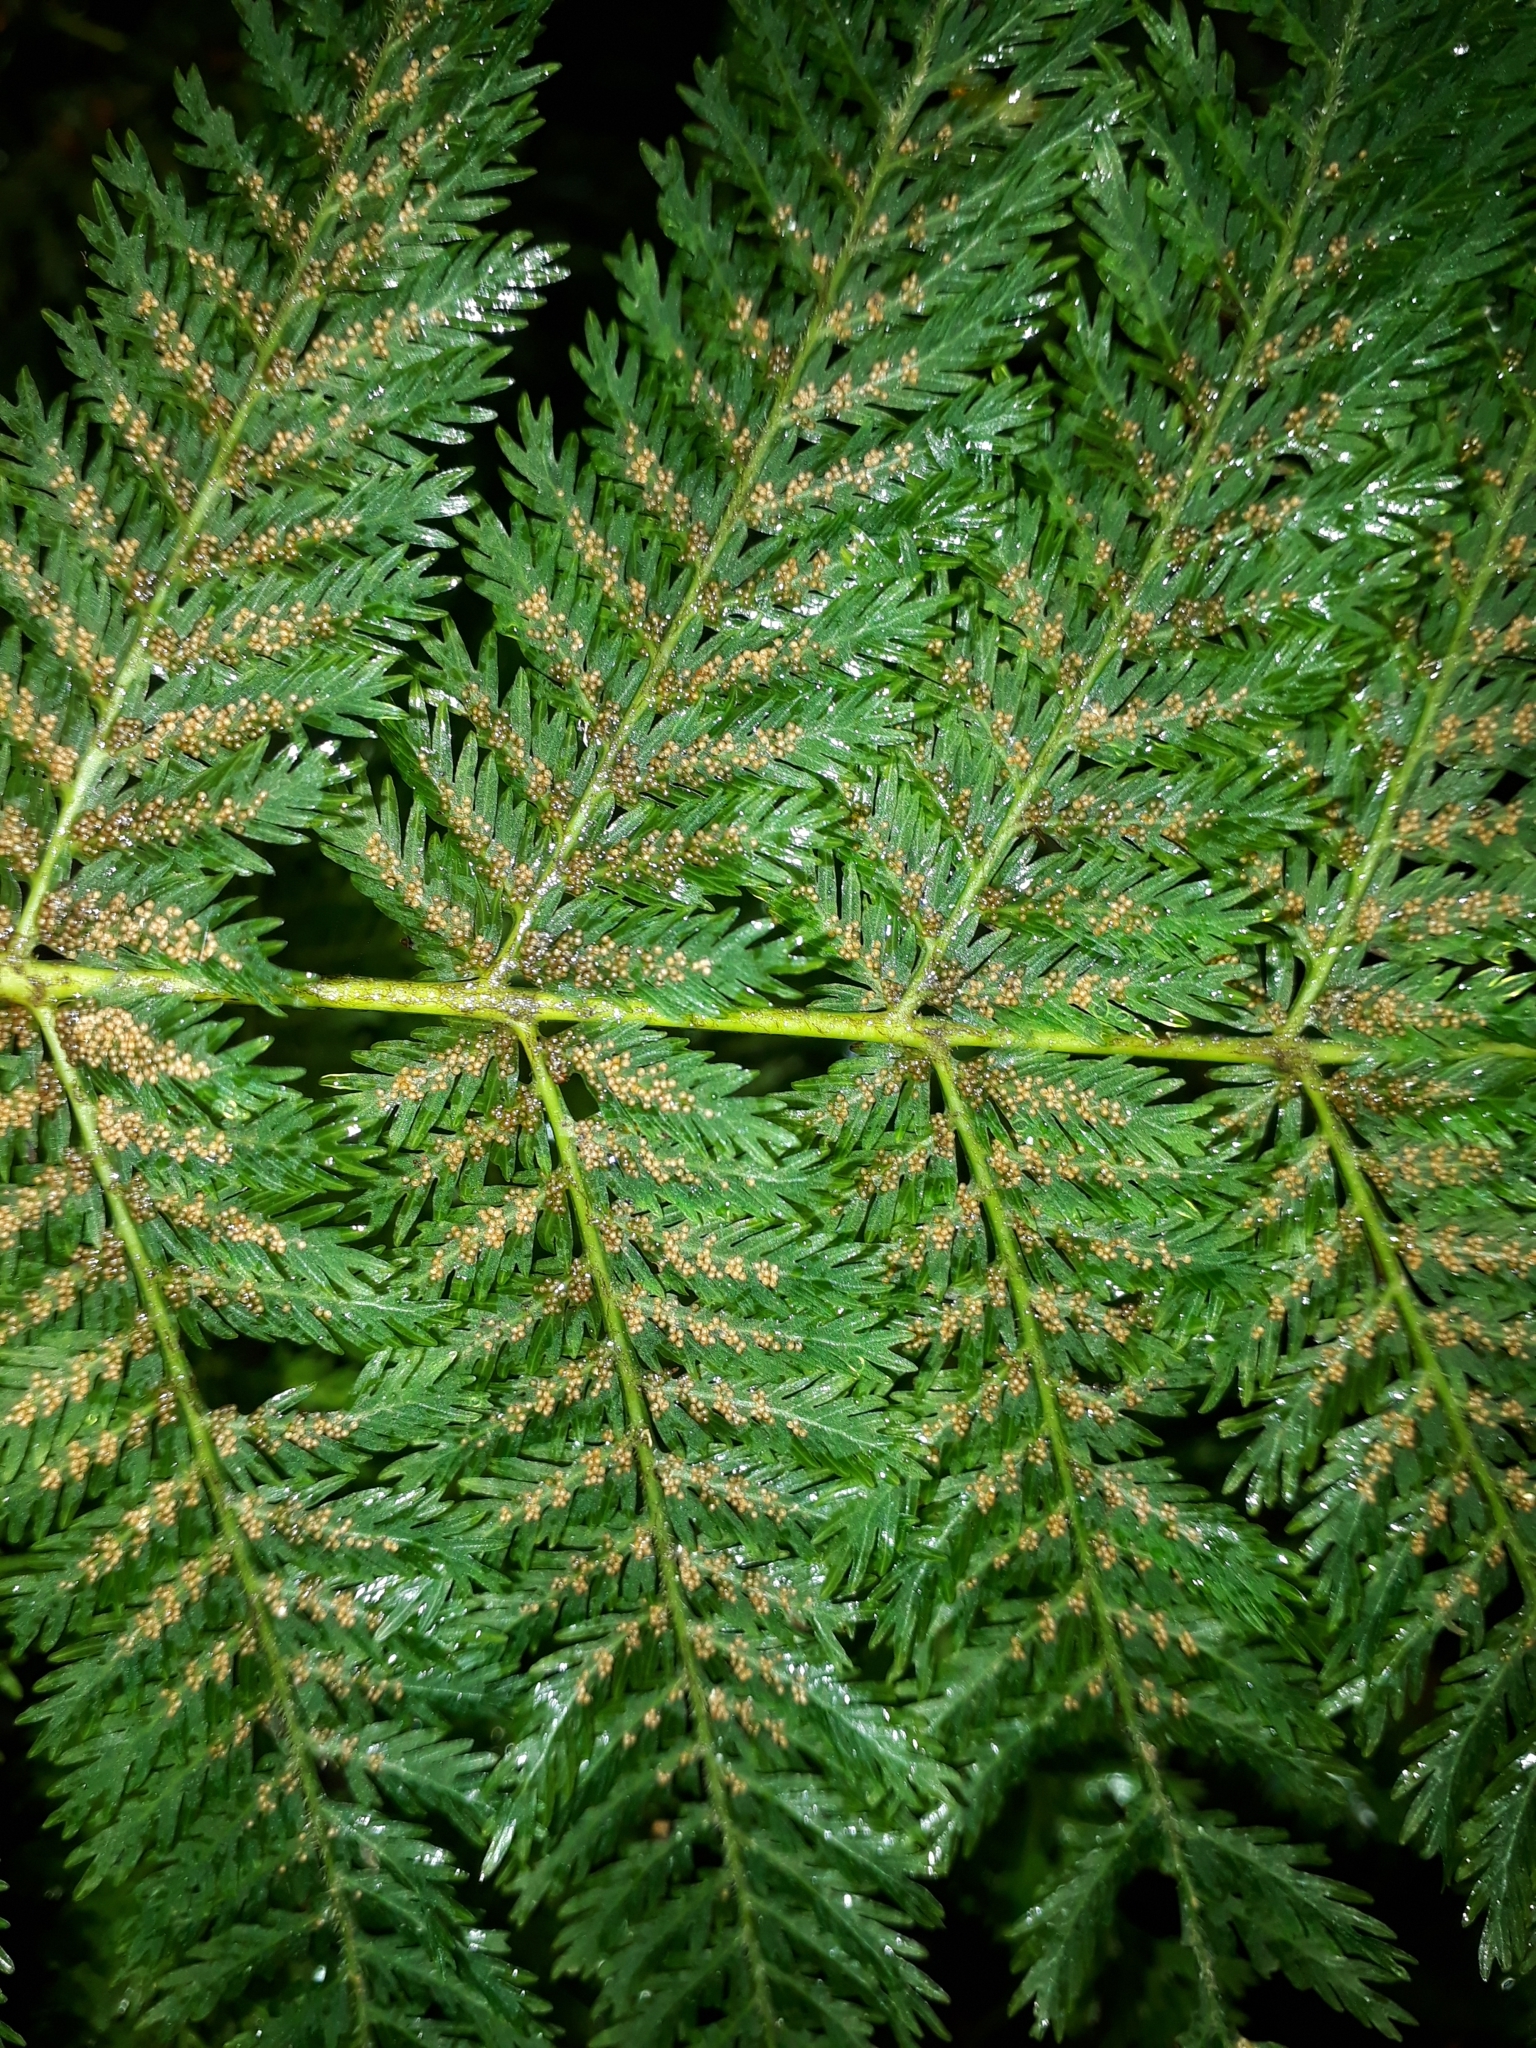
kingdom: Plantae
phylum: Tracheophyta
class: Polypodiopsida
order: Osmundales
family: Osmundaceae
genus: Leptopteris
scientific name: Leptopteris hymenophylloides
